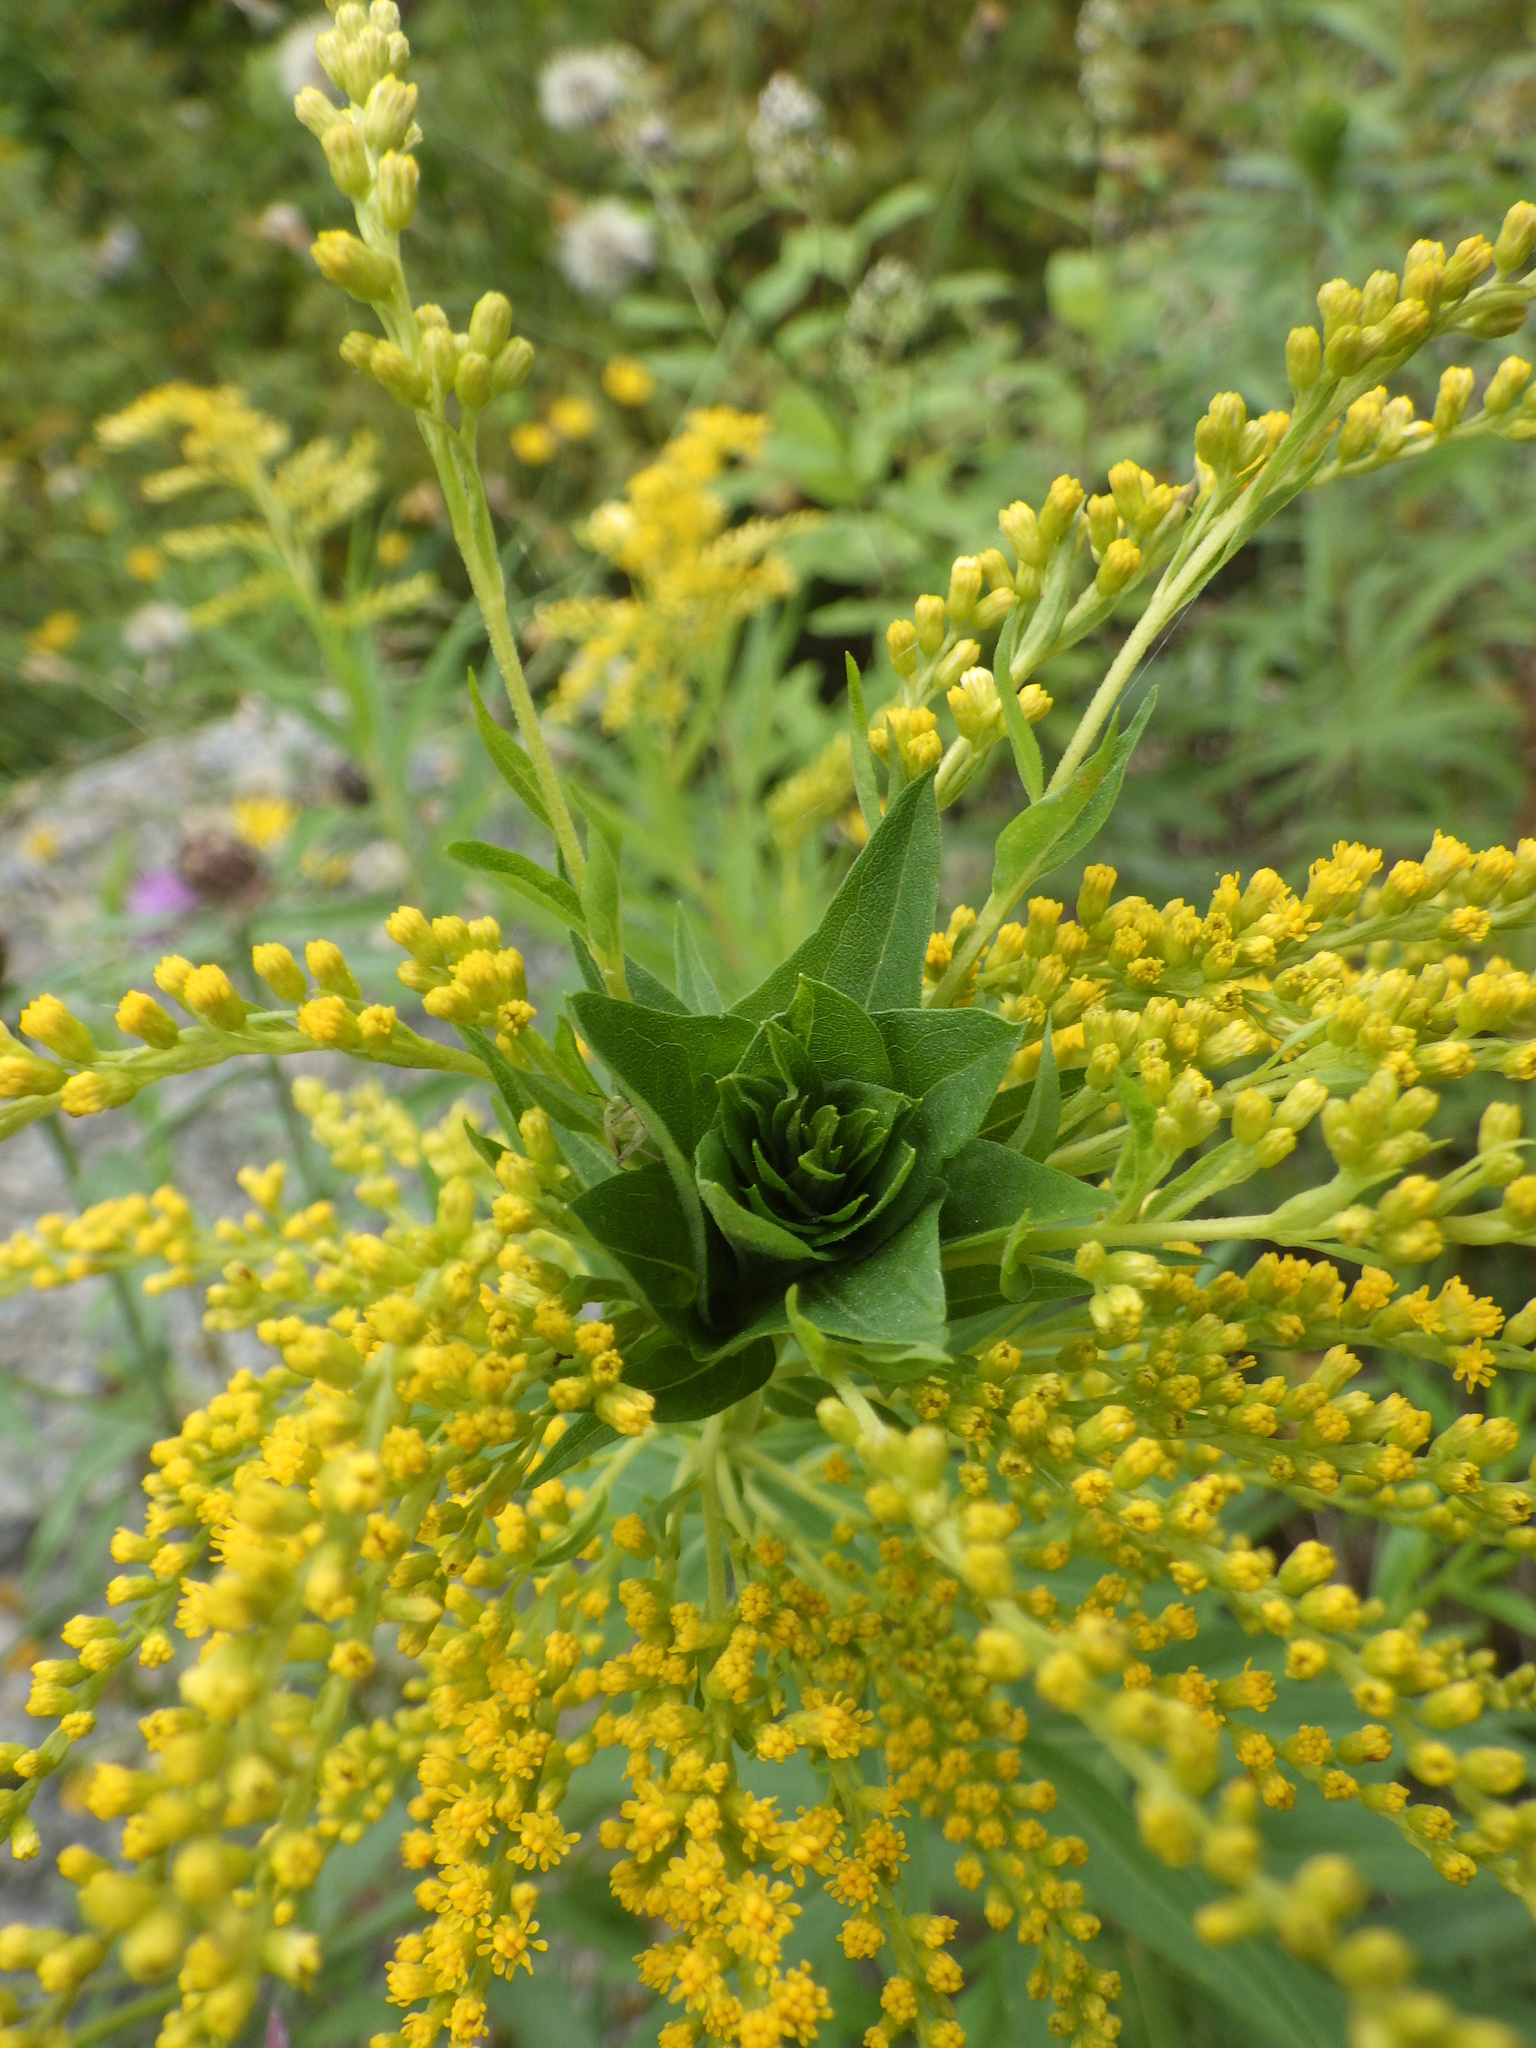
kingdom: Animalia
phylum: Arthropoda
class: Insecta
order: Diptera
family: Cecidomyiidae
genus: Rhopalomyia
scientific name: Rhopalomyia solidaginis
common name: Goldenrod bunch gall midge
